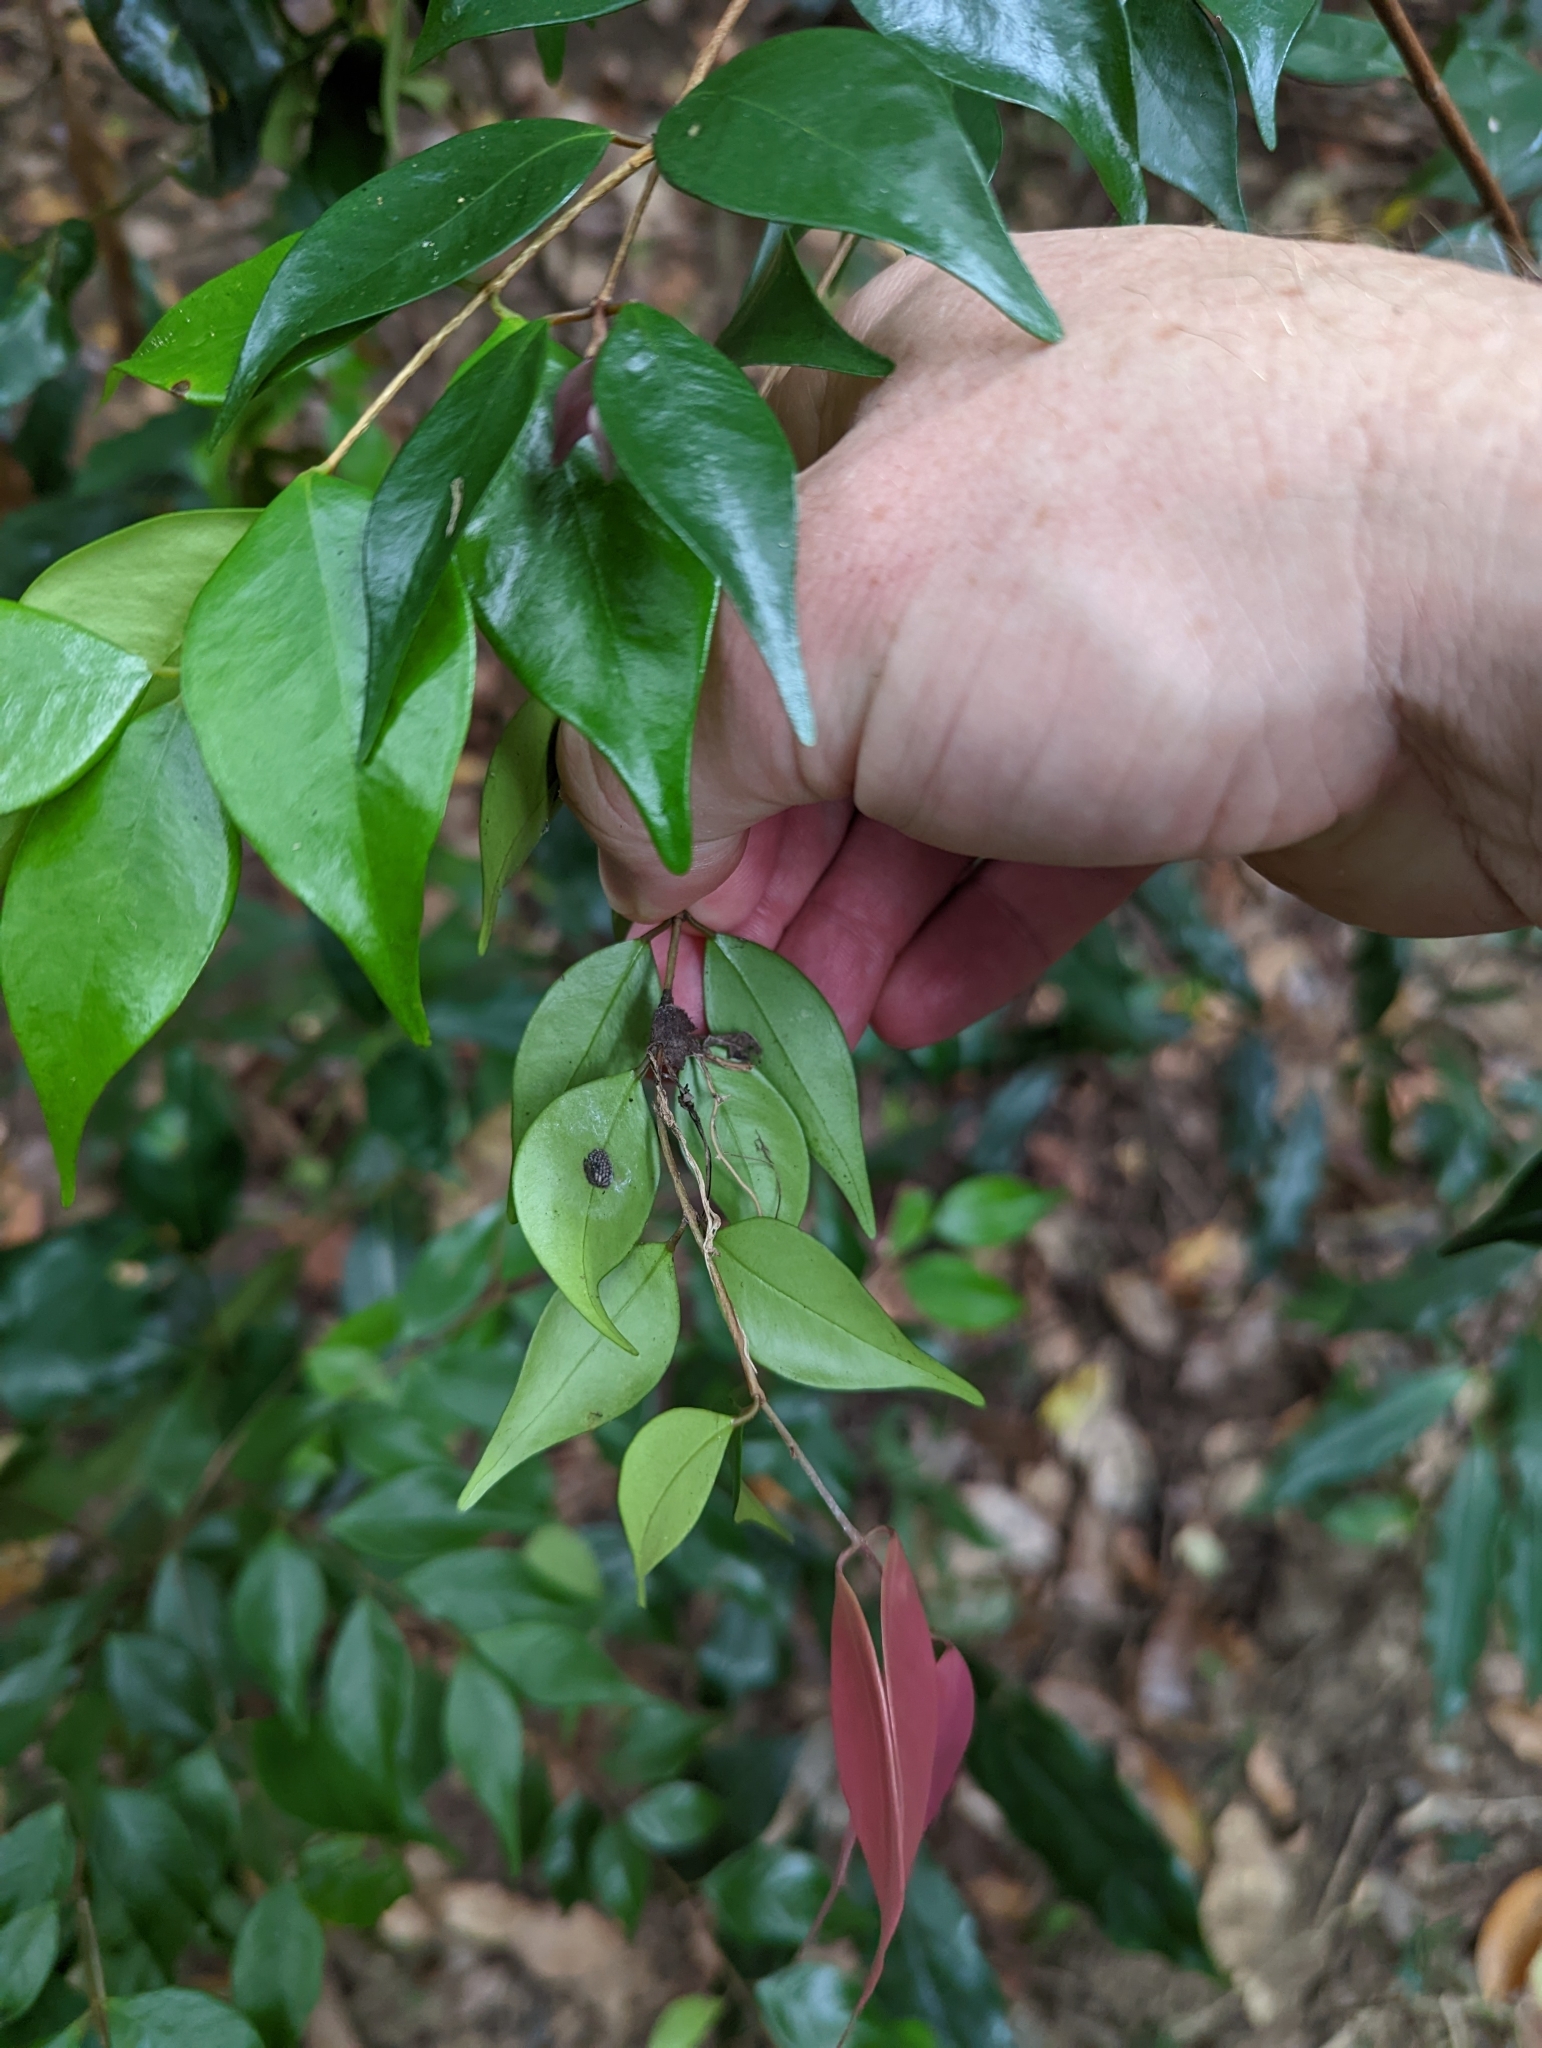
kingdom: Plantae
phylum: Tracheophyta
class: Magnoliopsida
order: Myrtales
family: Myrtaceae
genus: Syzygium
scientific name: Syzygium luehmannii
